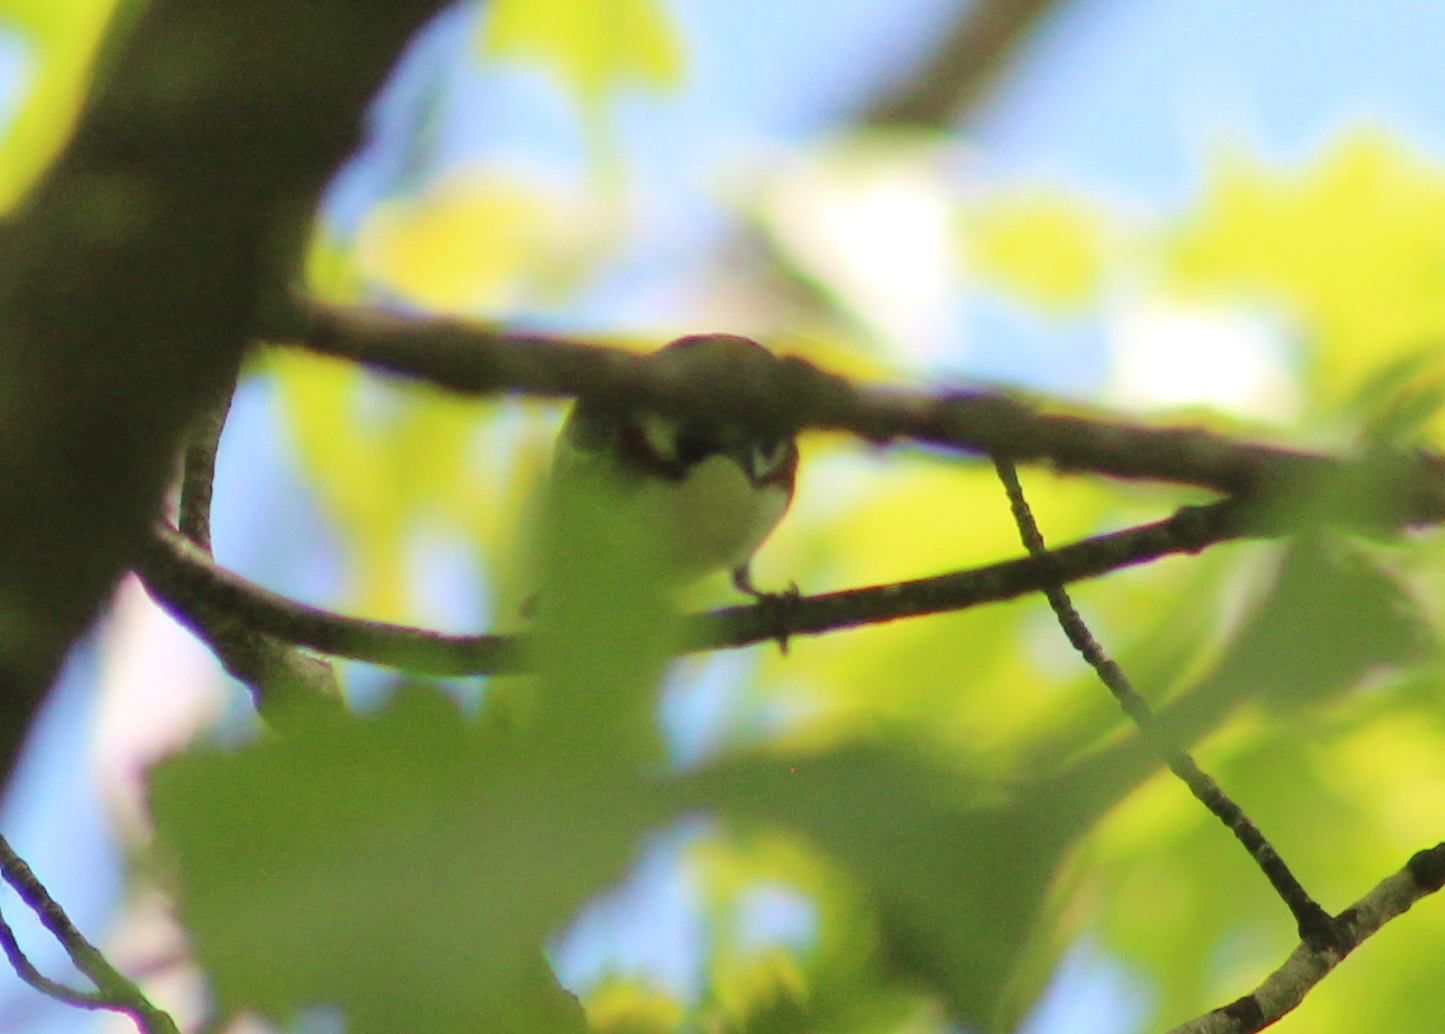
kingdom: Animalia
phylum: Chordata
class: Aves
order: Passeriformes
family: Parulidae
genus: Setophaga
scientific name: Setophaga pensylvanica
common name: Chestnut-sided warbler
